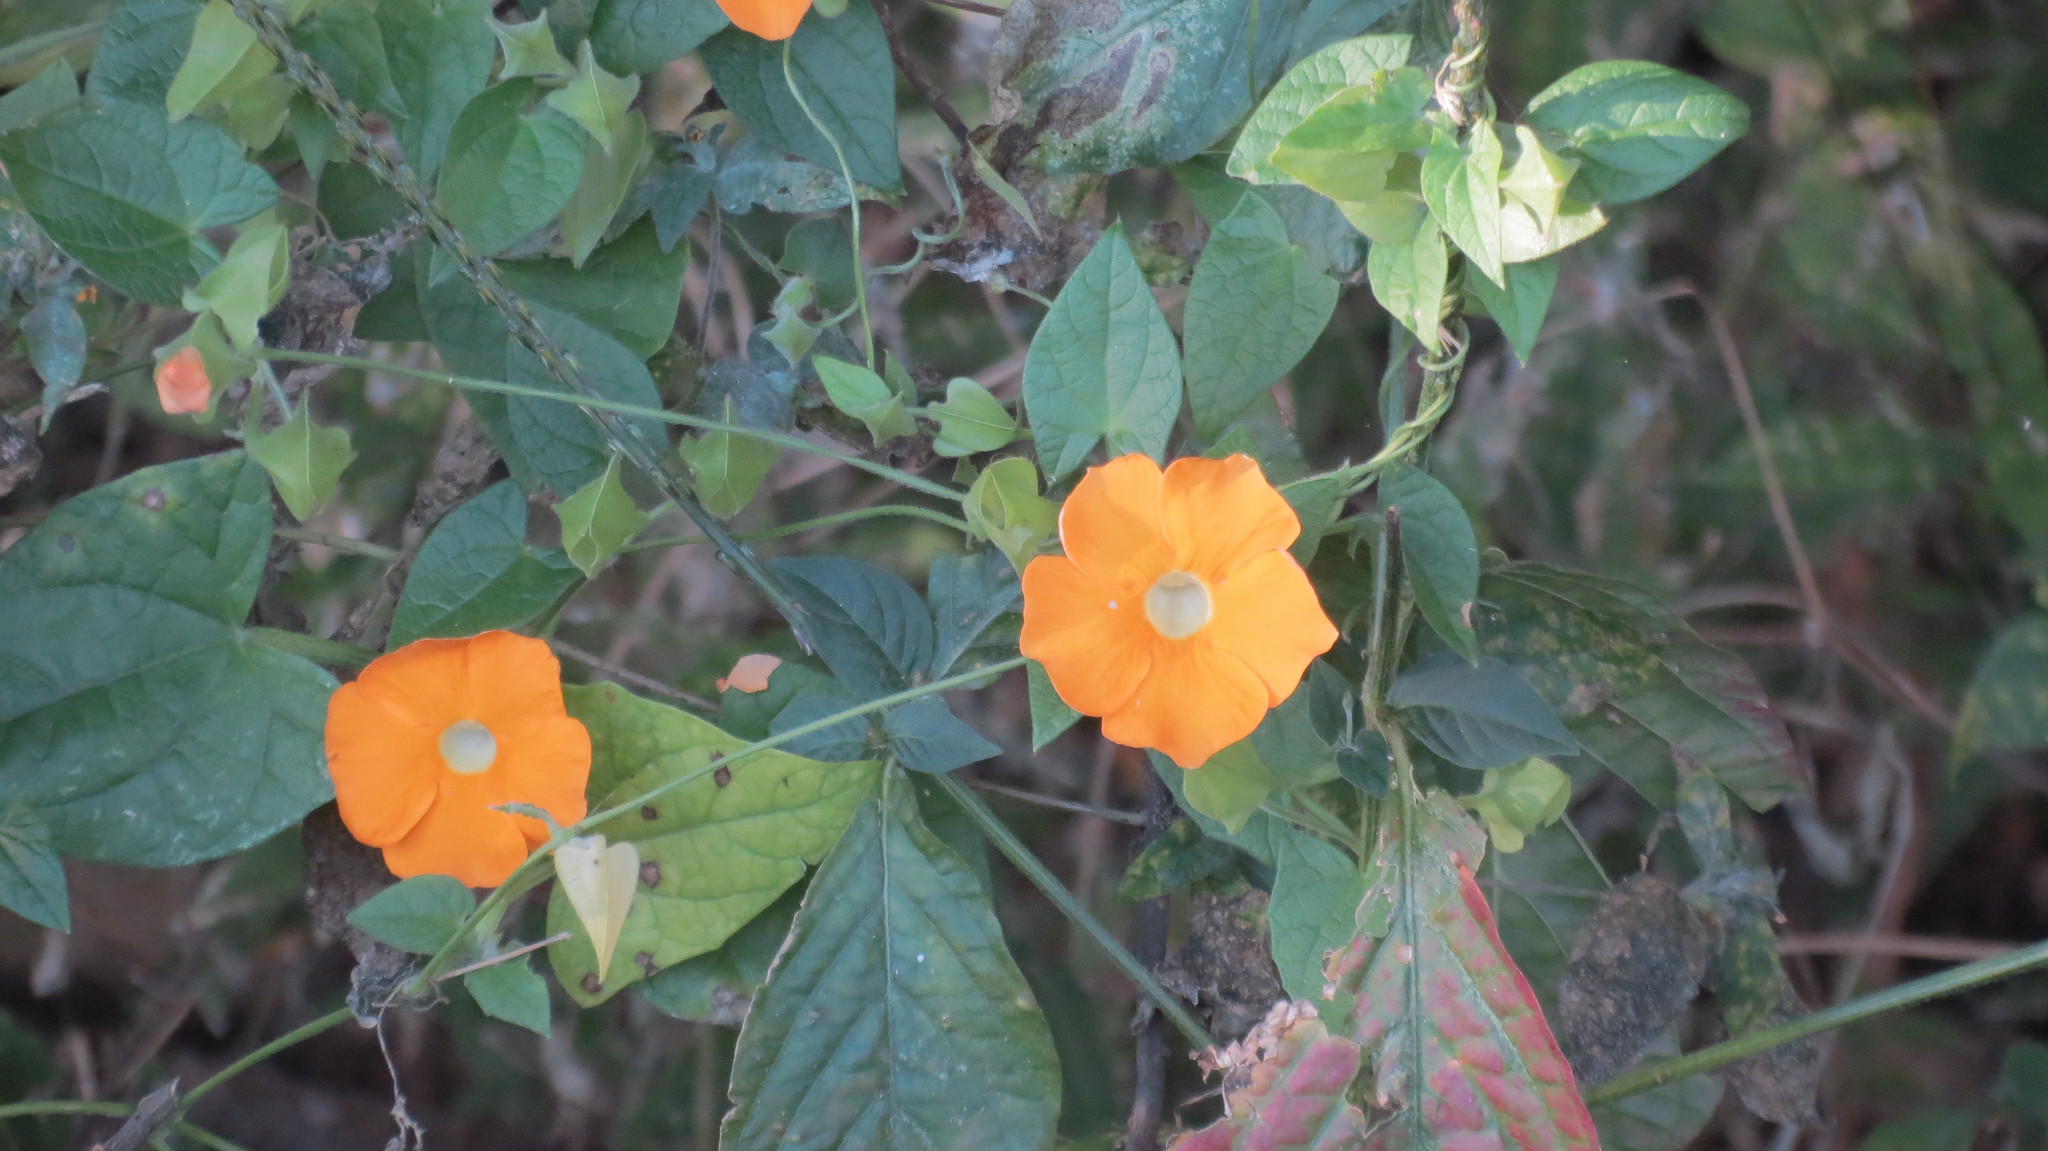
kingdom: Plantae
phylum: Tracheophyta
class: Magnoliopsida
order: Lamiales
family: Acanthaceae
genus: Thunbergia
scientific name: Thunbergia alata
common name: Blackeyed susan vine
